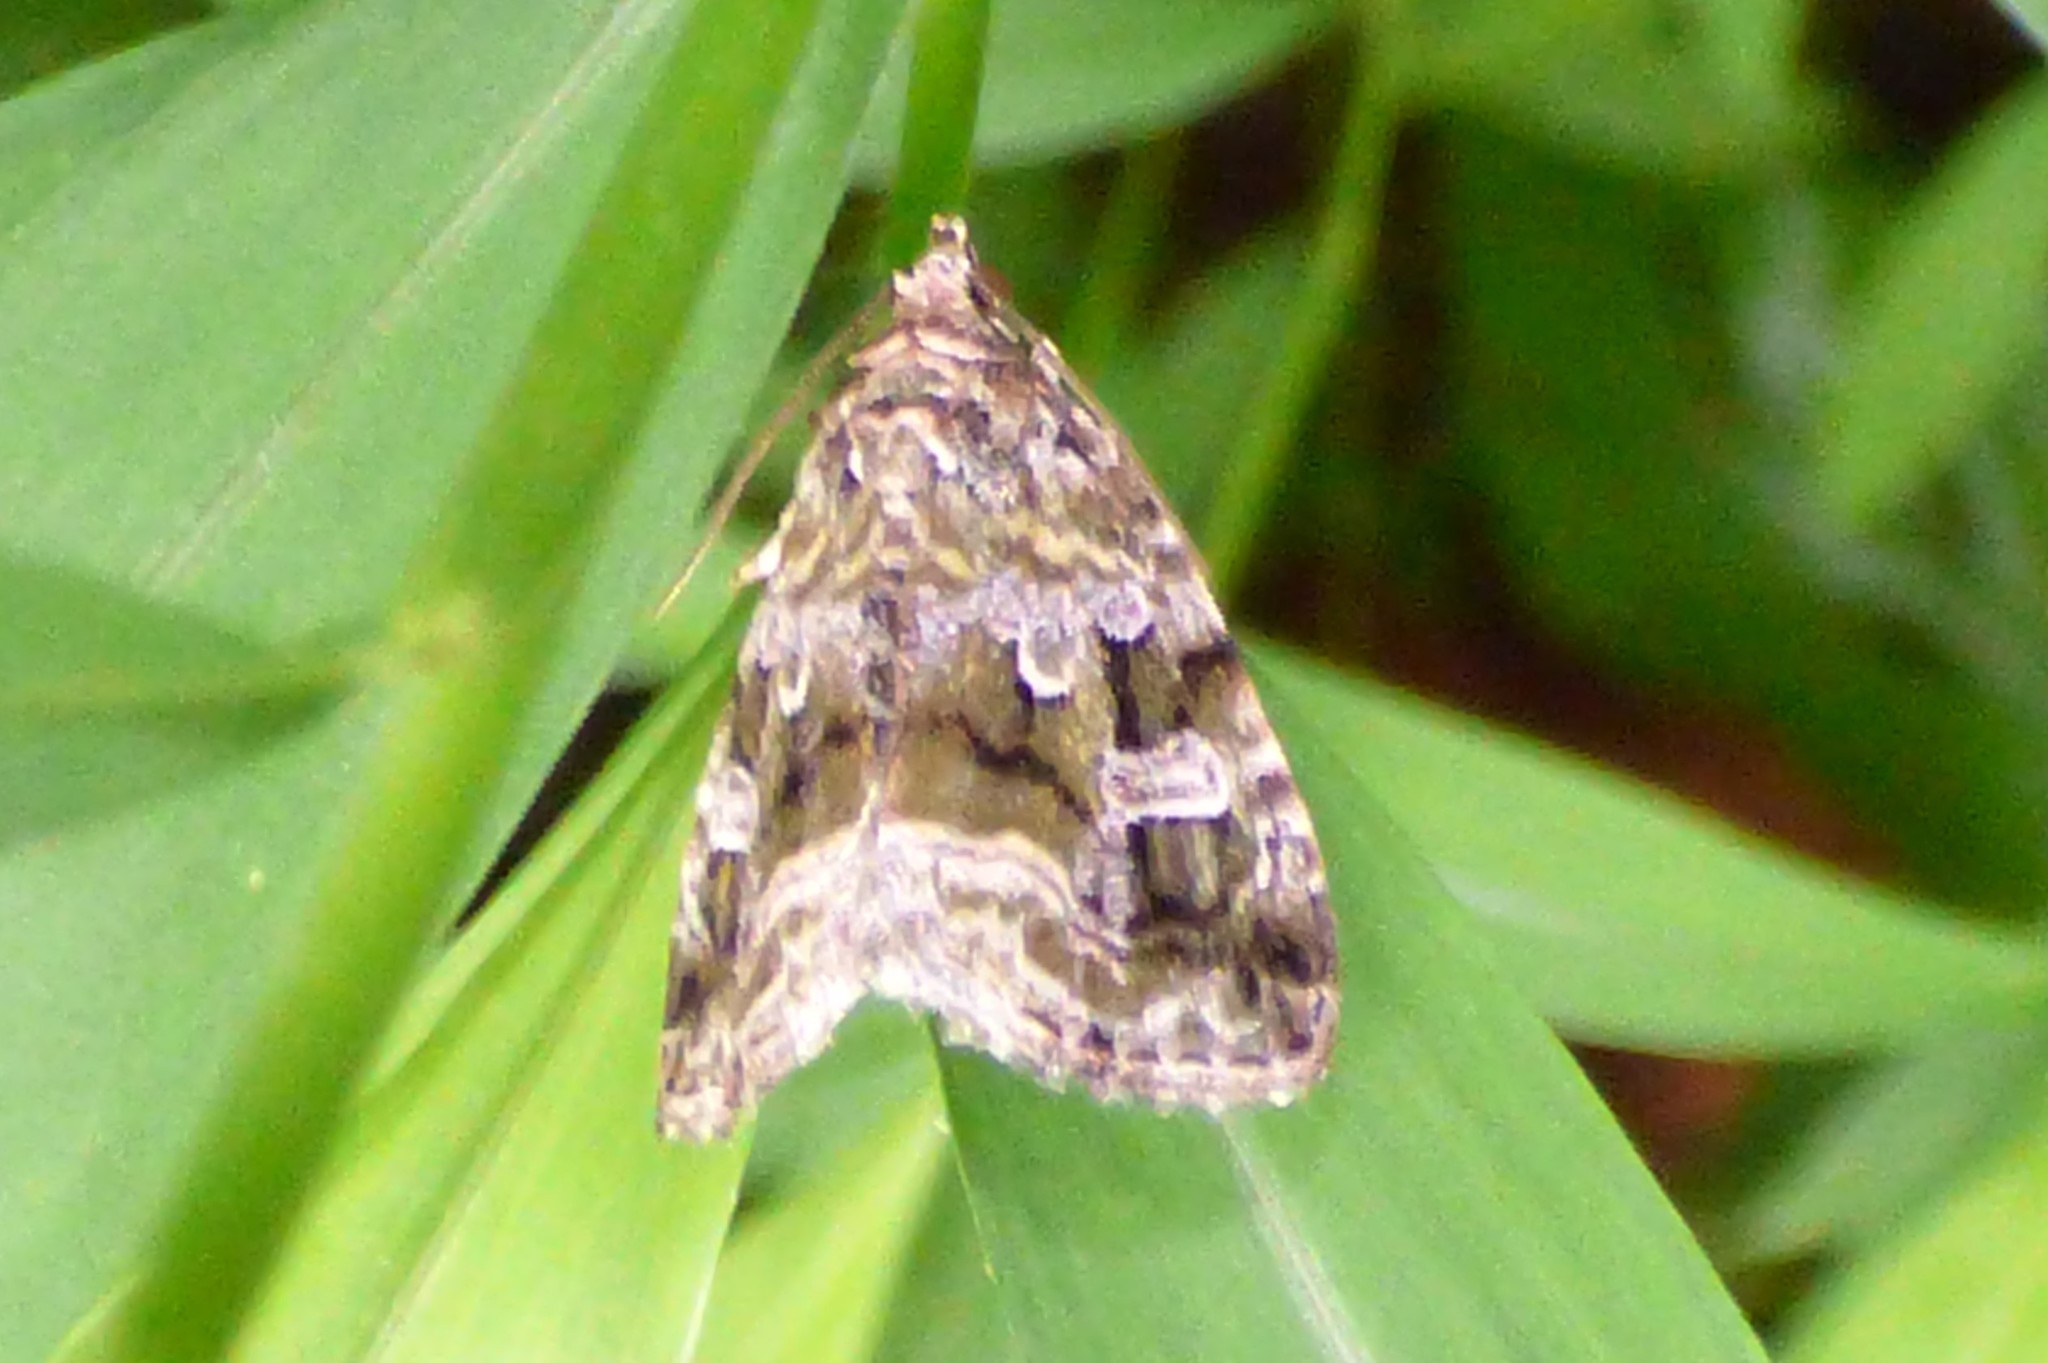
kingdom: Animalia
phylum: Arthropoda
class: Insecta
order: Lepidoptera
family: Noctuidae
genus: Protodeltote
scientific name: Protodeltote muscosula
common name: Large mossy glyph
